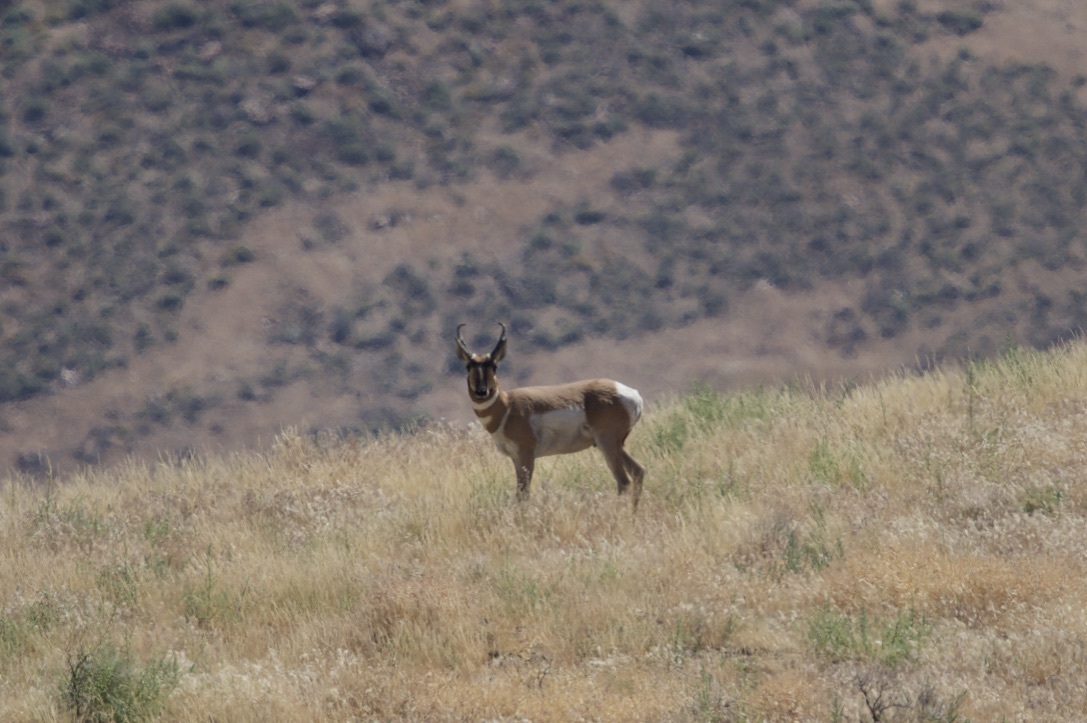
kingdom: Animalia
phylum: Chordata
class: Mammalia
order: Artiodactyla
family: Antilocapridae
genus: Antilocapra
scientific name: Antilocapra americana
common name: Pronghorn
